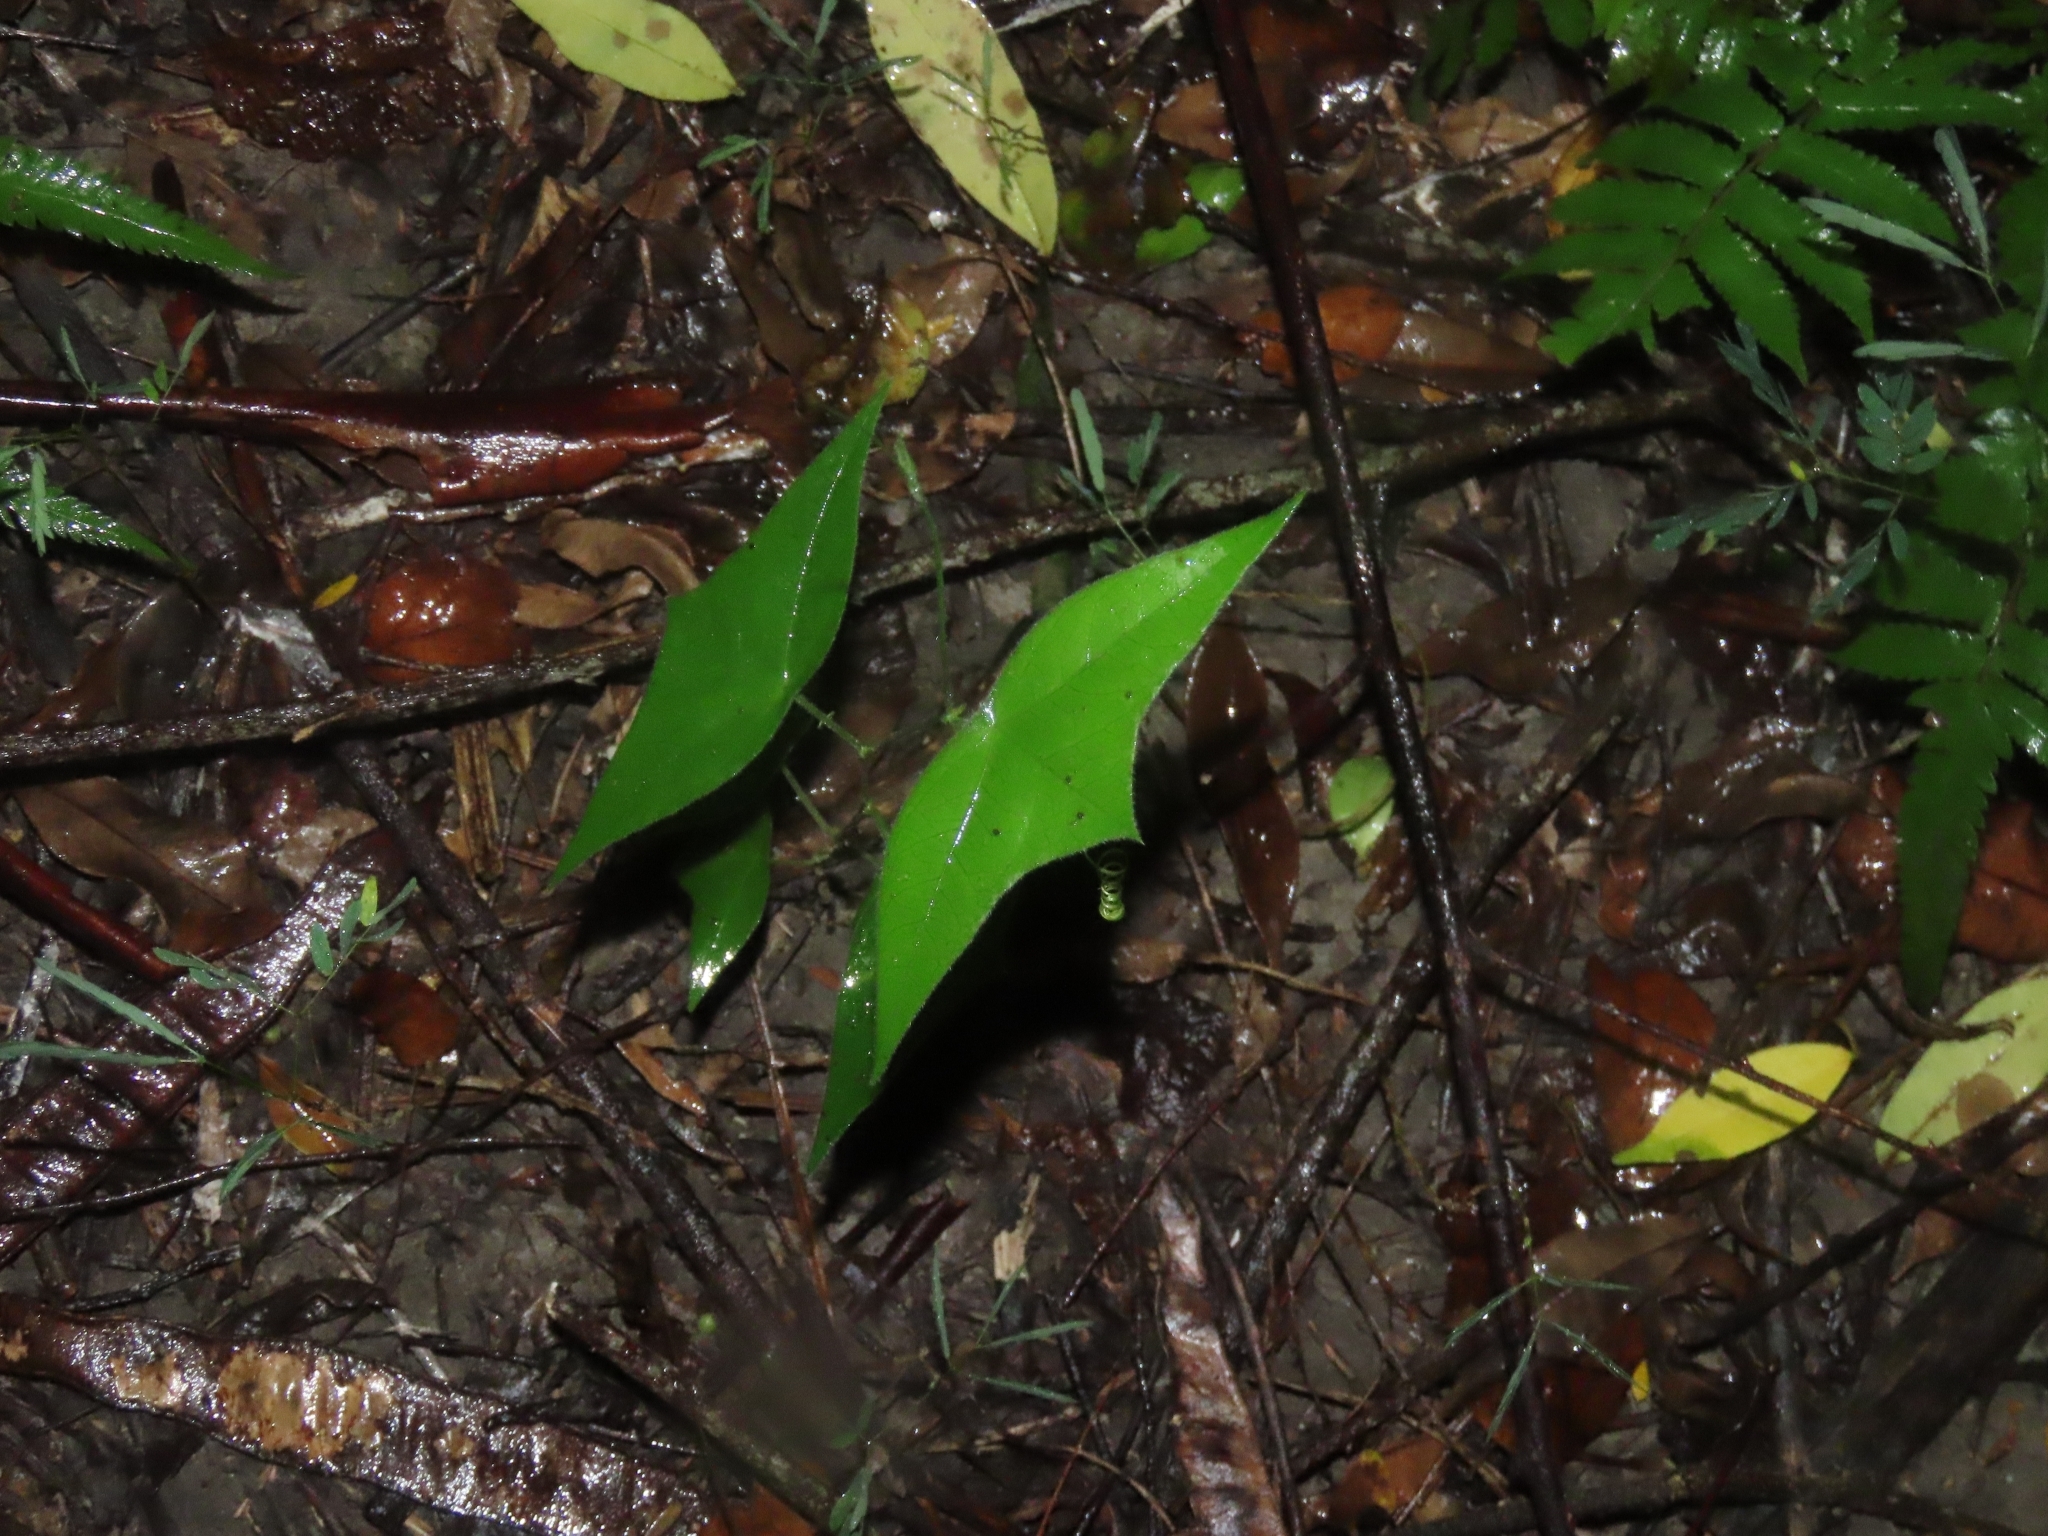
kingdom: Plantae
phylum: Tracheophyta
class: Magnoliopsida
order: Malpighiales
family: Passifloraceae
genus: Passiflora
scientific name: Passiflora suberosa
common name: Wild passionfruit
